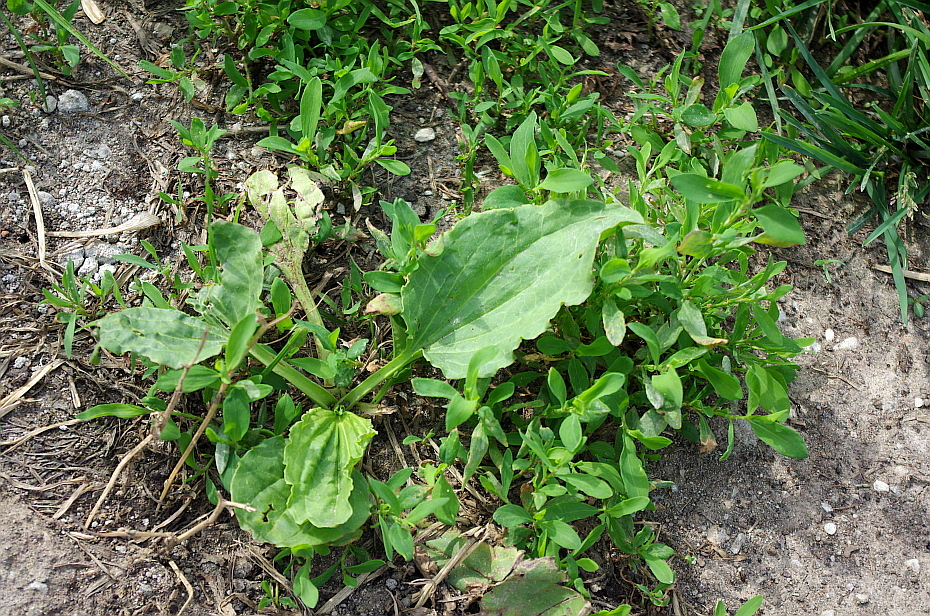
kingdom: Plantae
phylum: Tracheophyta
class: Magnoliopsida
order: Lamiales
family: Plantaginaceae
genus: Plantago
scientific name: Plantago major
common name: Common plantain
